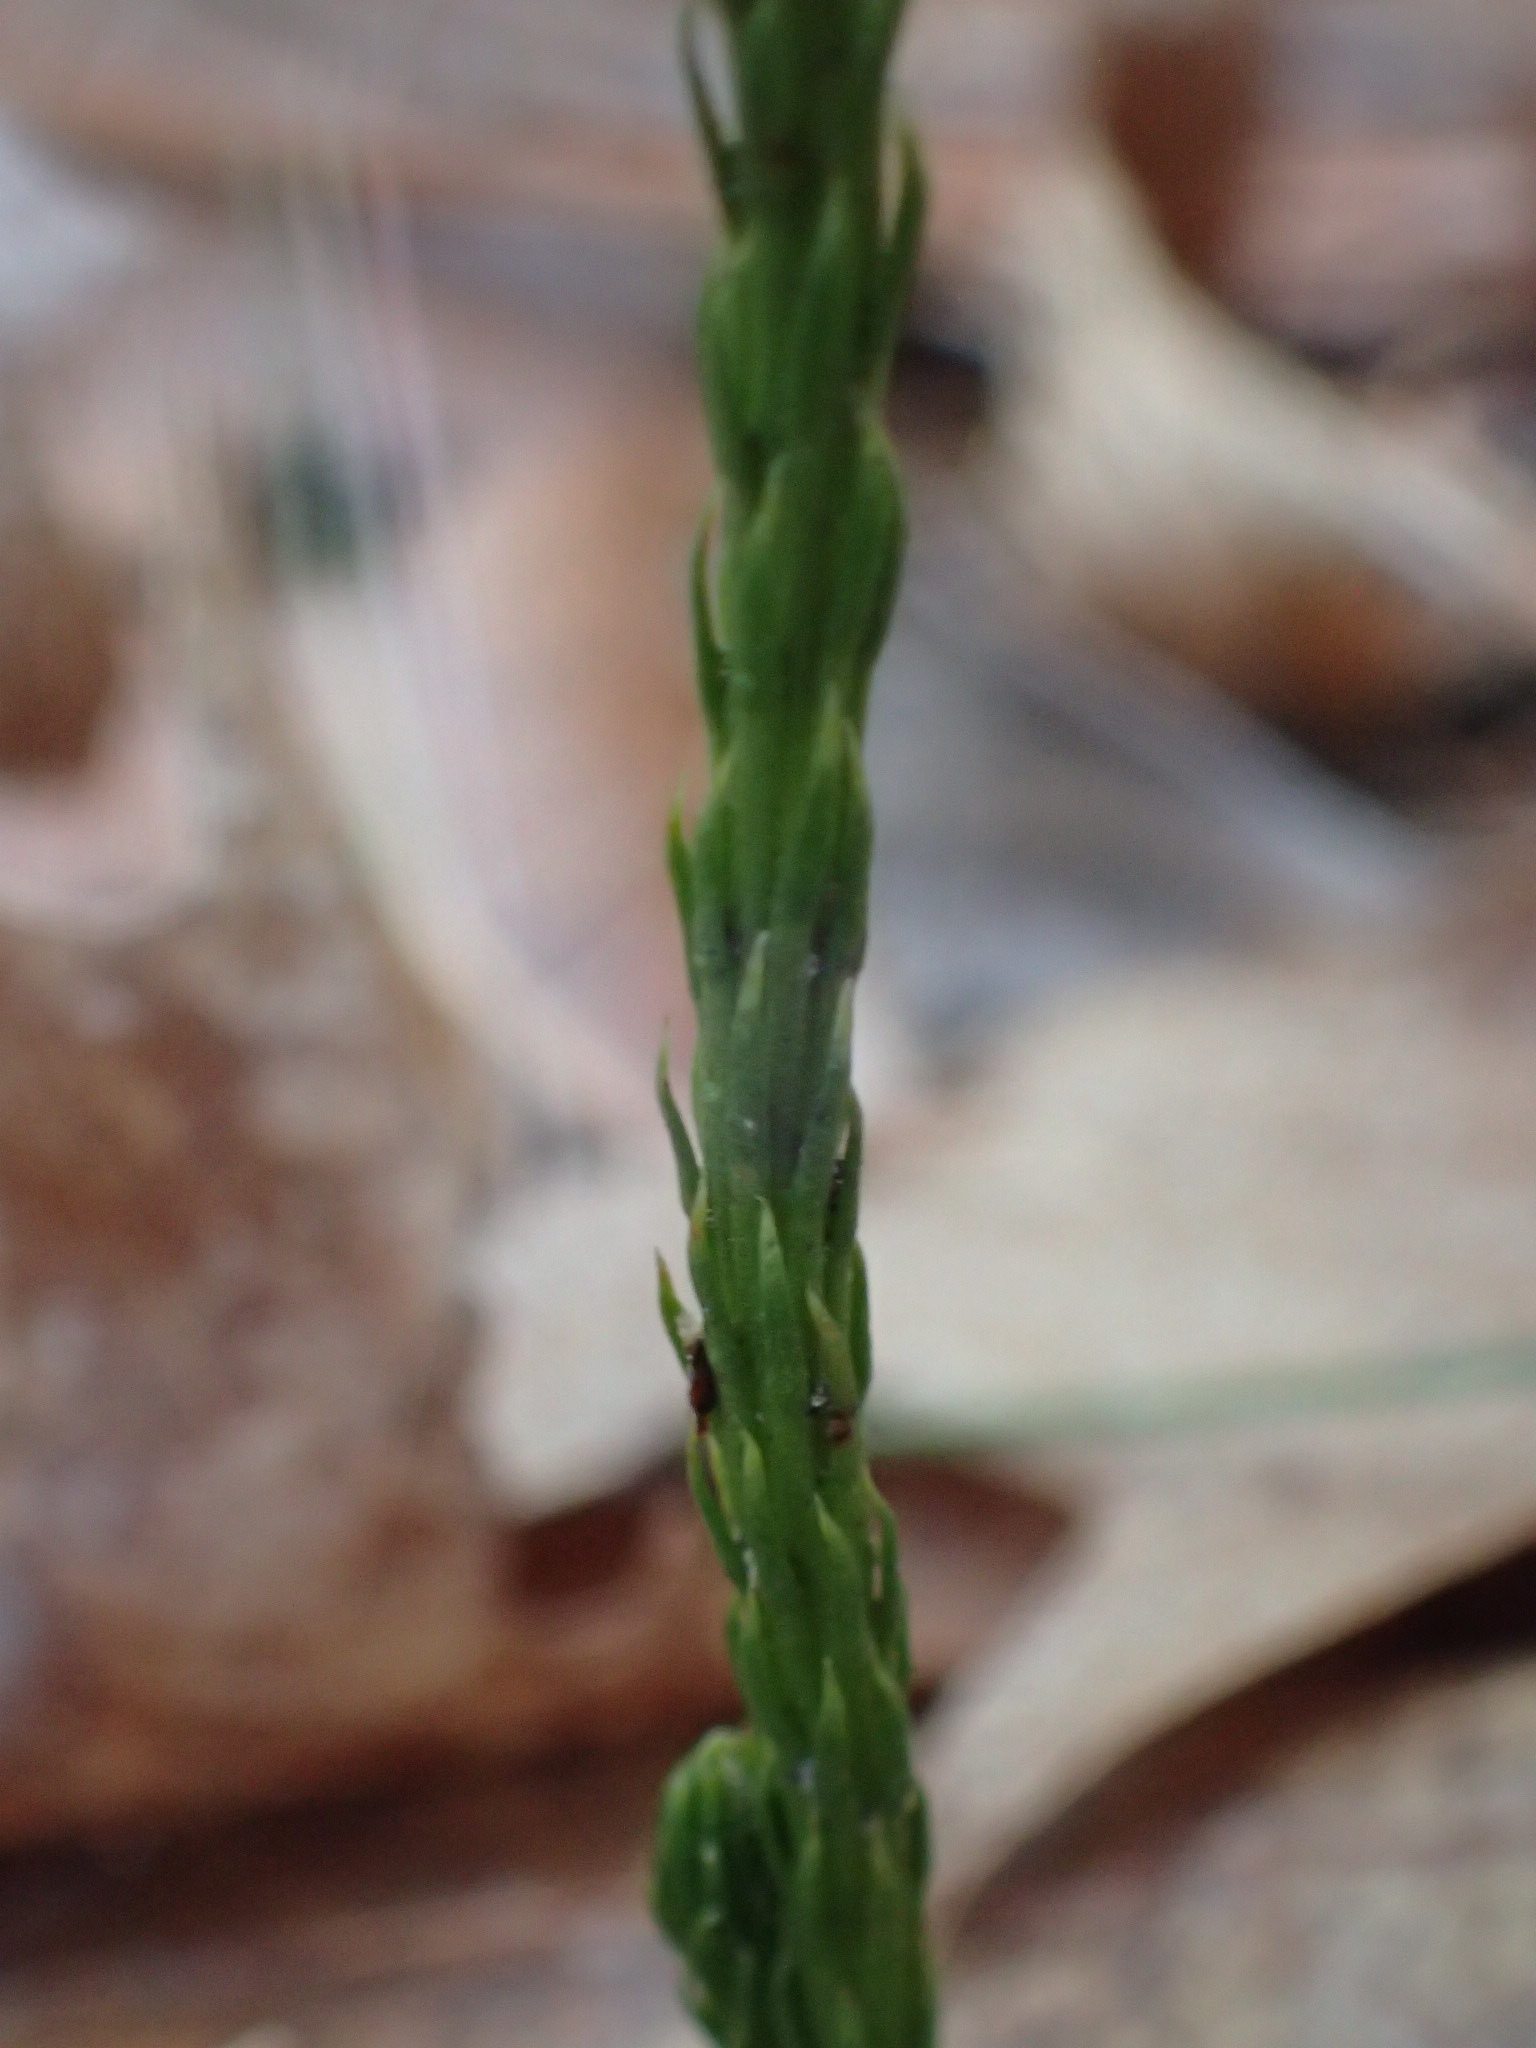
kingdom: Plantae
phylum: Tracheophyta
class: Lycopodiopsida
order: Lycopodiales
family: Lycopodiaceae
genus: Dendrolycopodium
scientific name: Dendrolycopodium obscurum
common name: Common ground-pine
